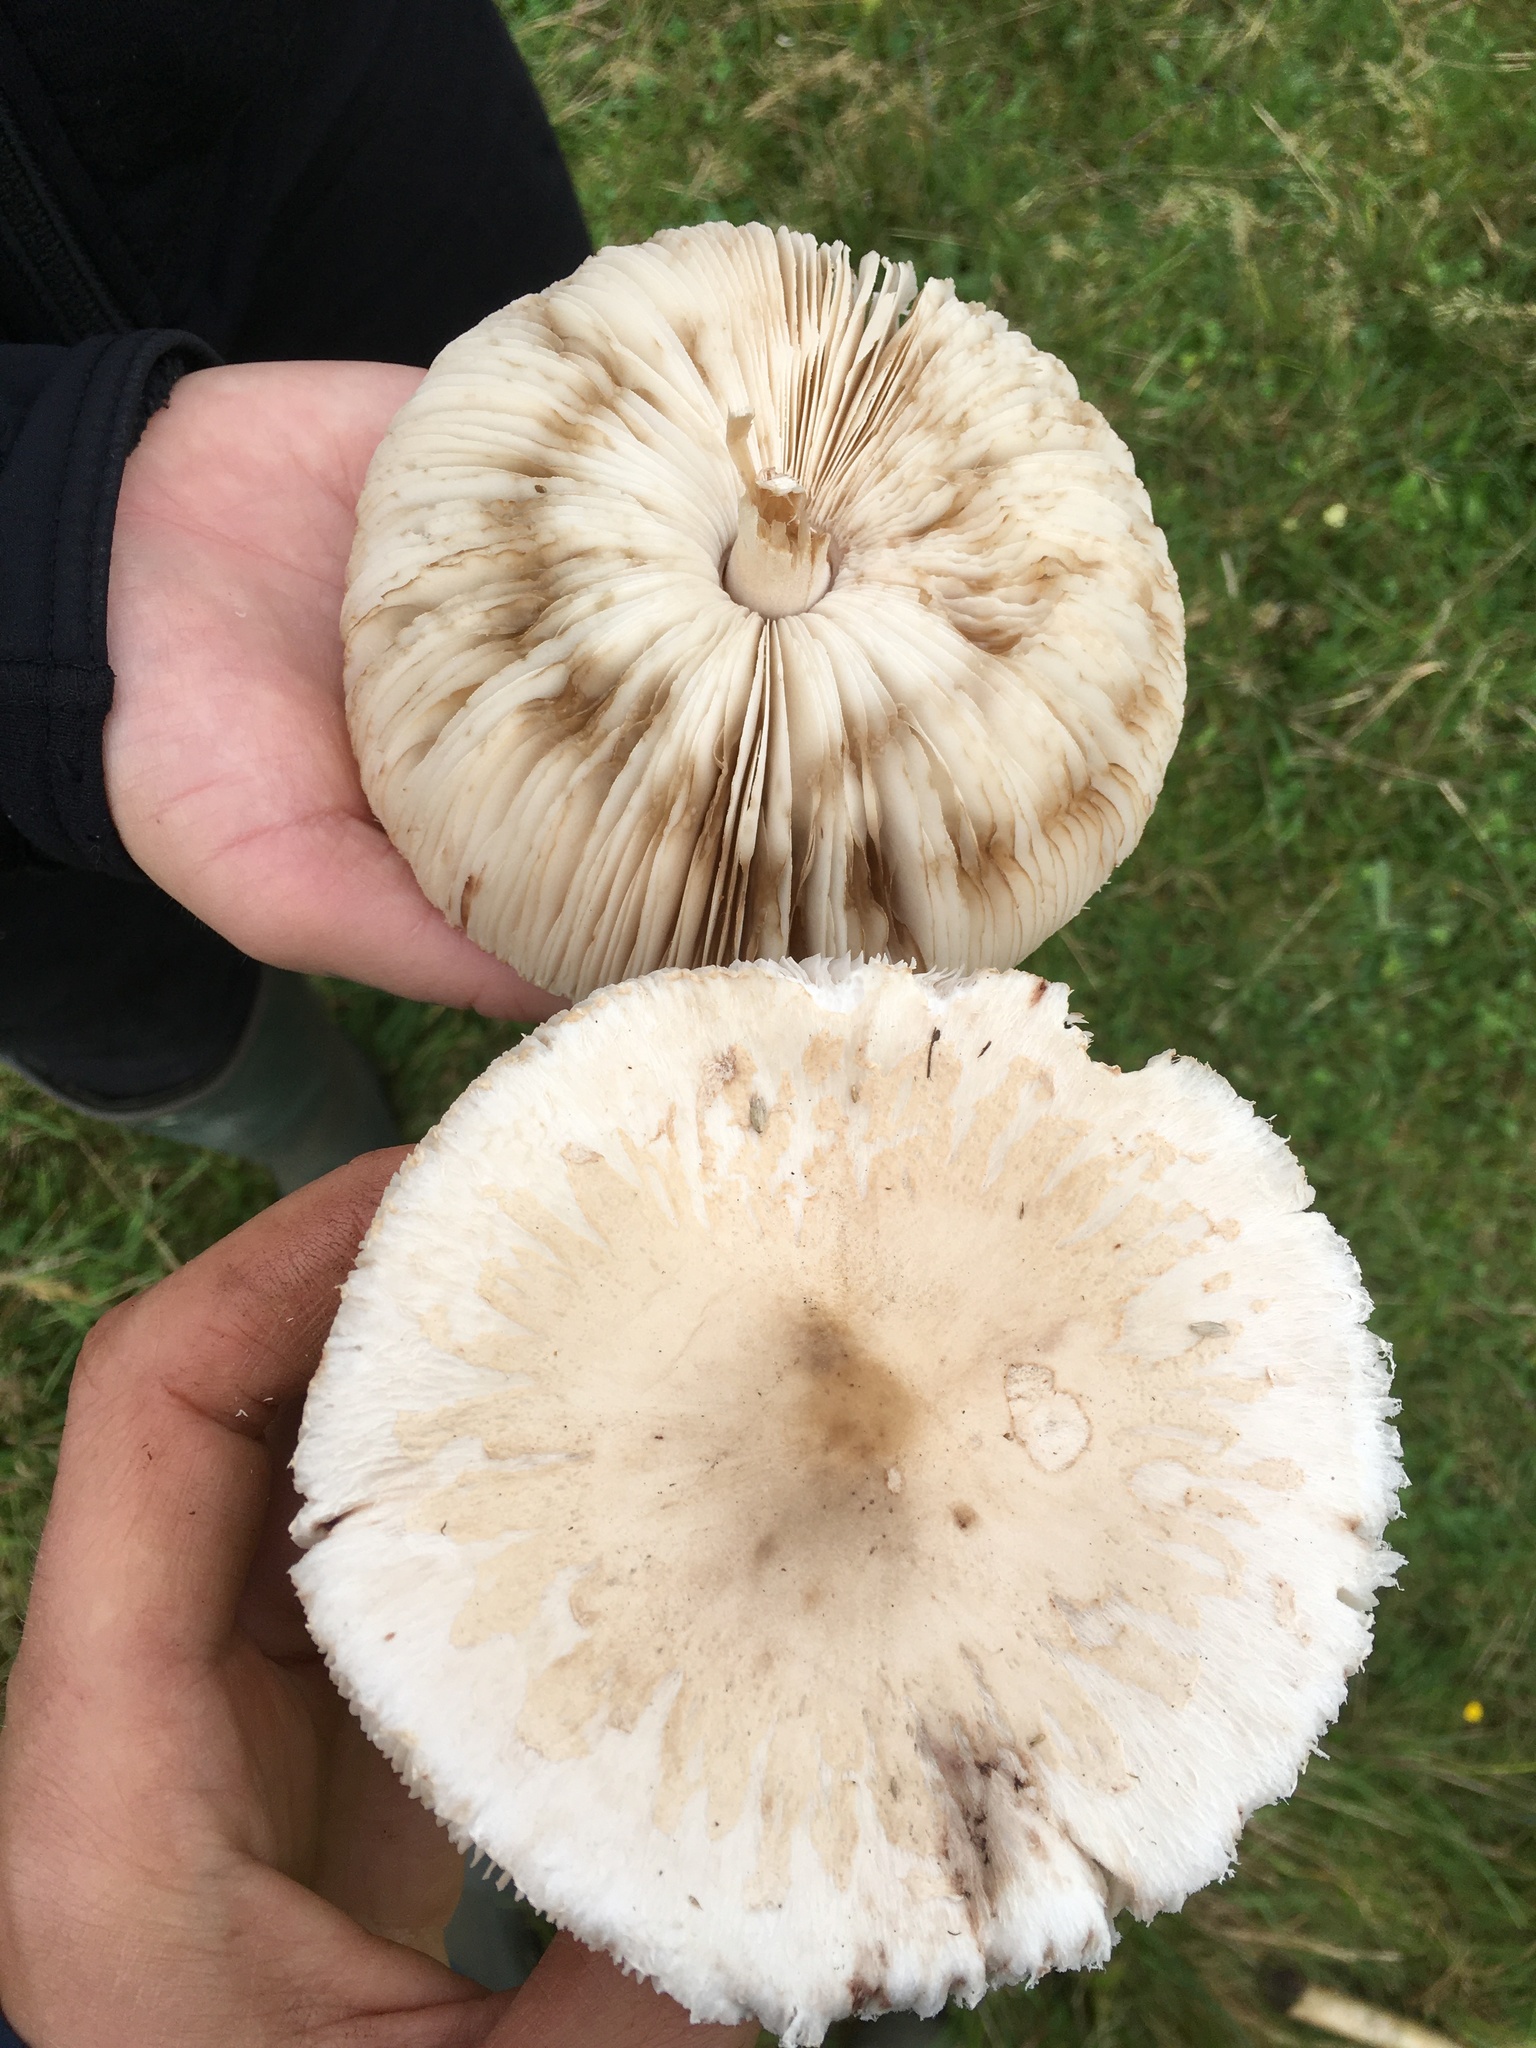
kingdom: Fungi
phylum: Basidiomycota
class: Agaricomycetes
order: Agaricales
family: Agaricaceae
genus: Macrolepiota
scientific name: Macrolepiota excoriata
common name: Frayed parasol
